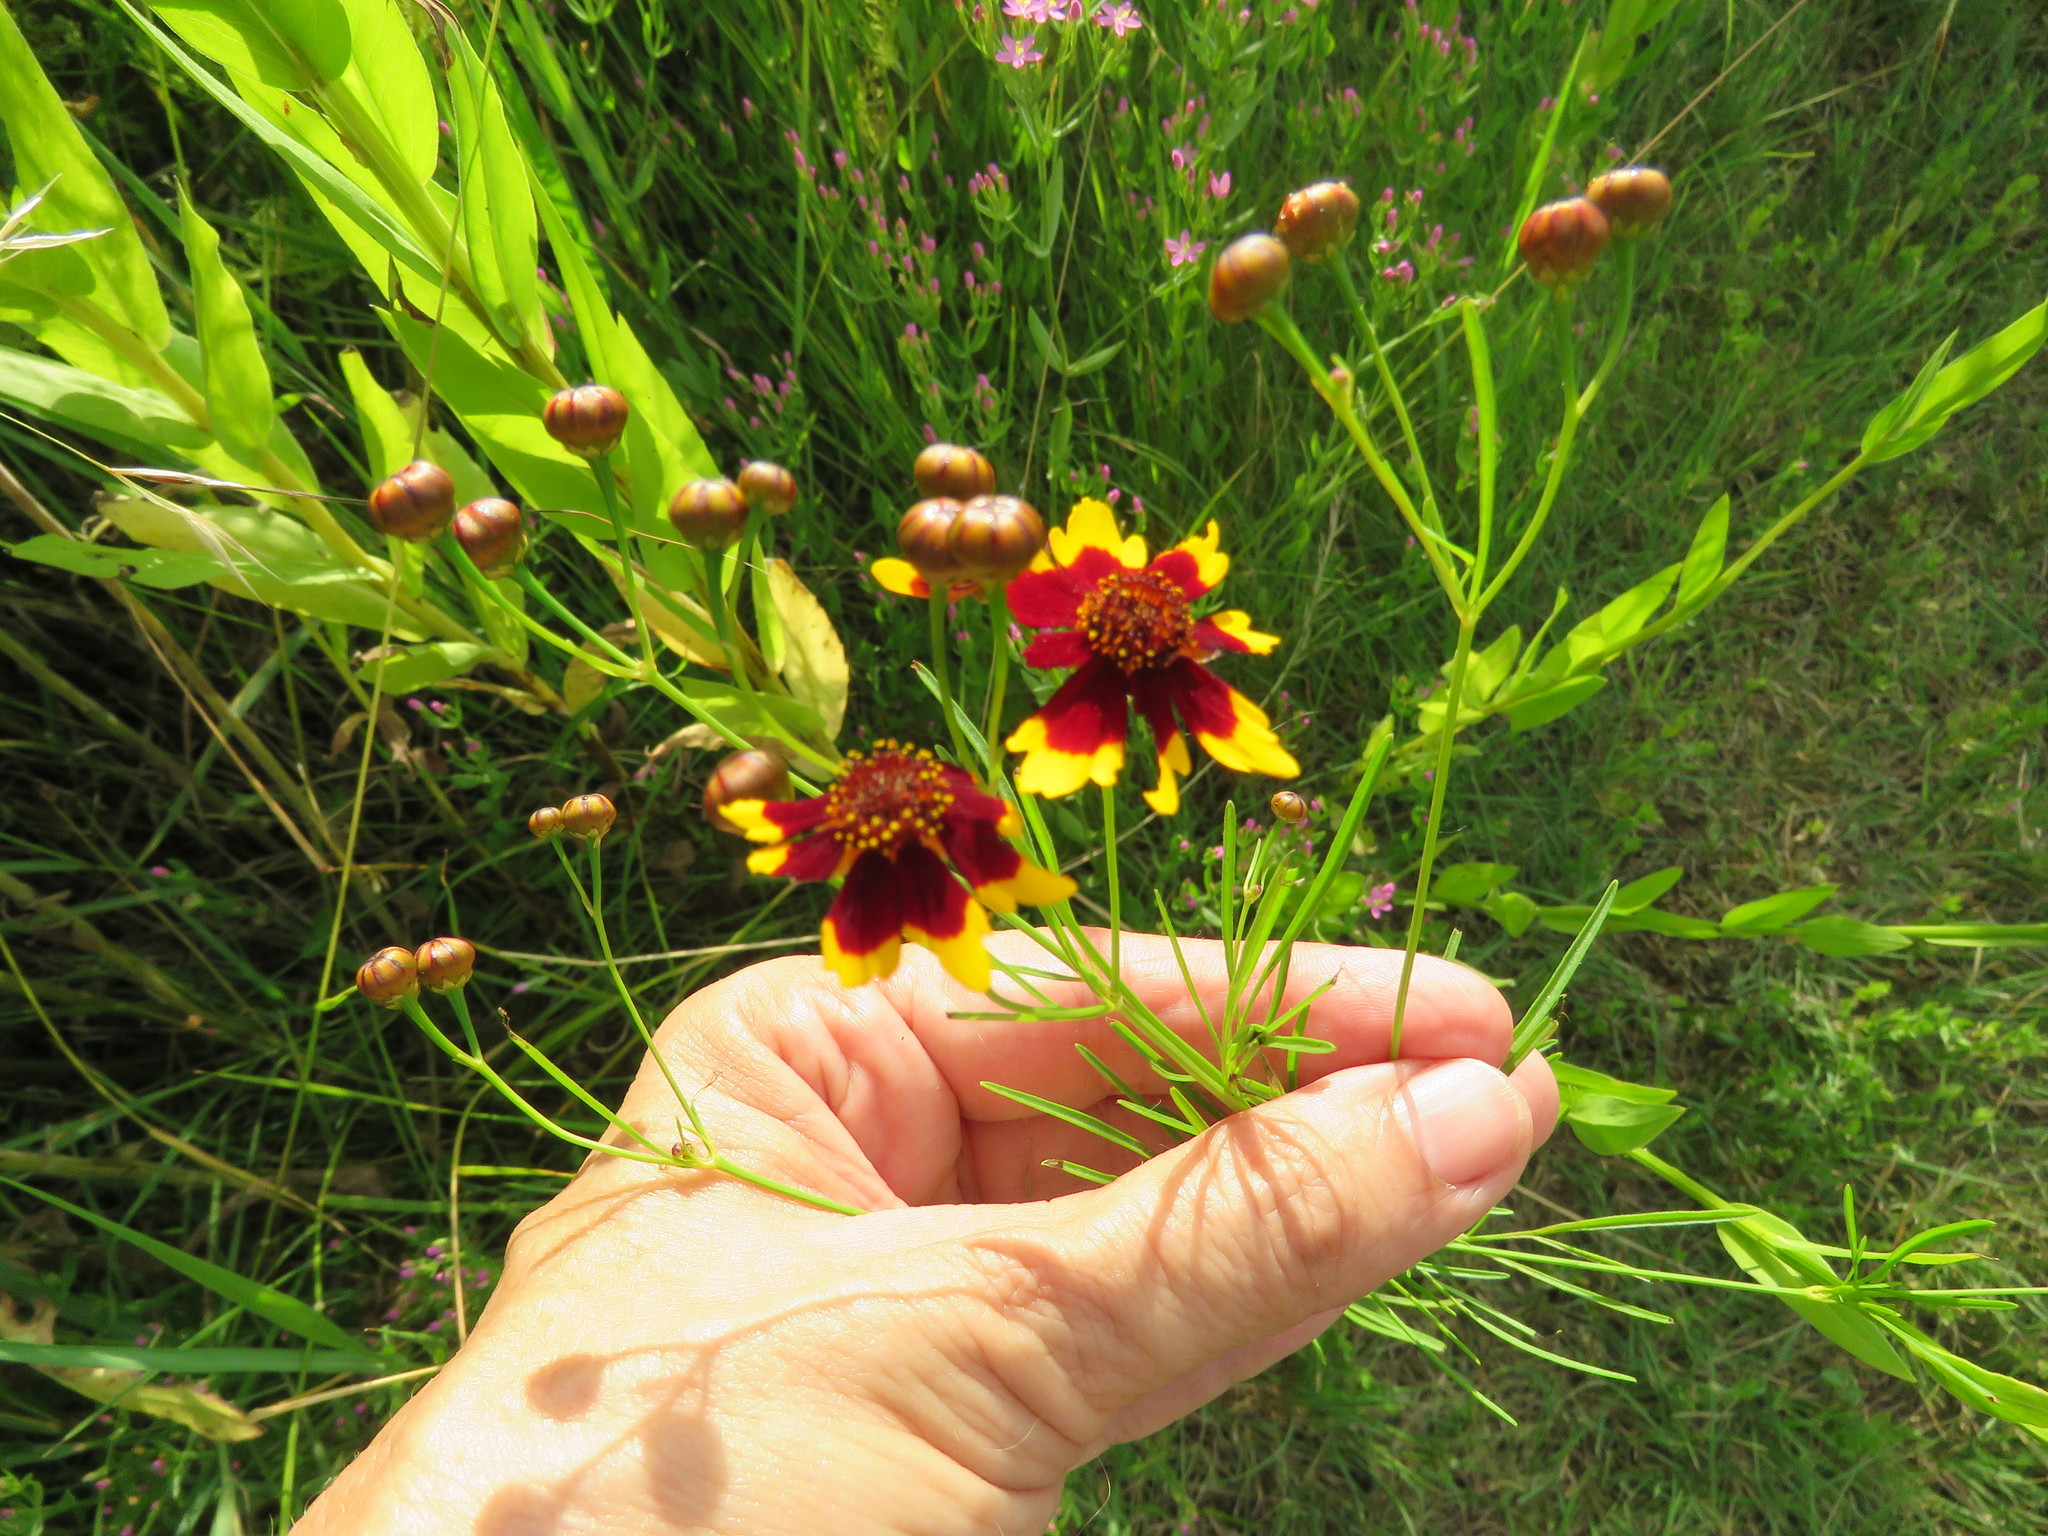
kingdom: Plantae
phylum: Tracheophyta
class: Magnoliopsida
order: Asterales
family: Asteraceae
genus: Coreopsis
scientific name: Coreopsis tinctoria
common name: Garden tickseed
